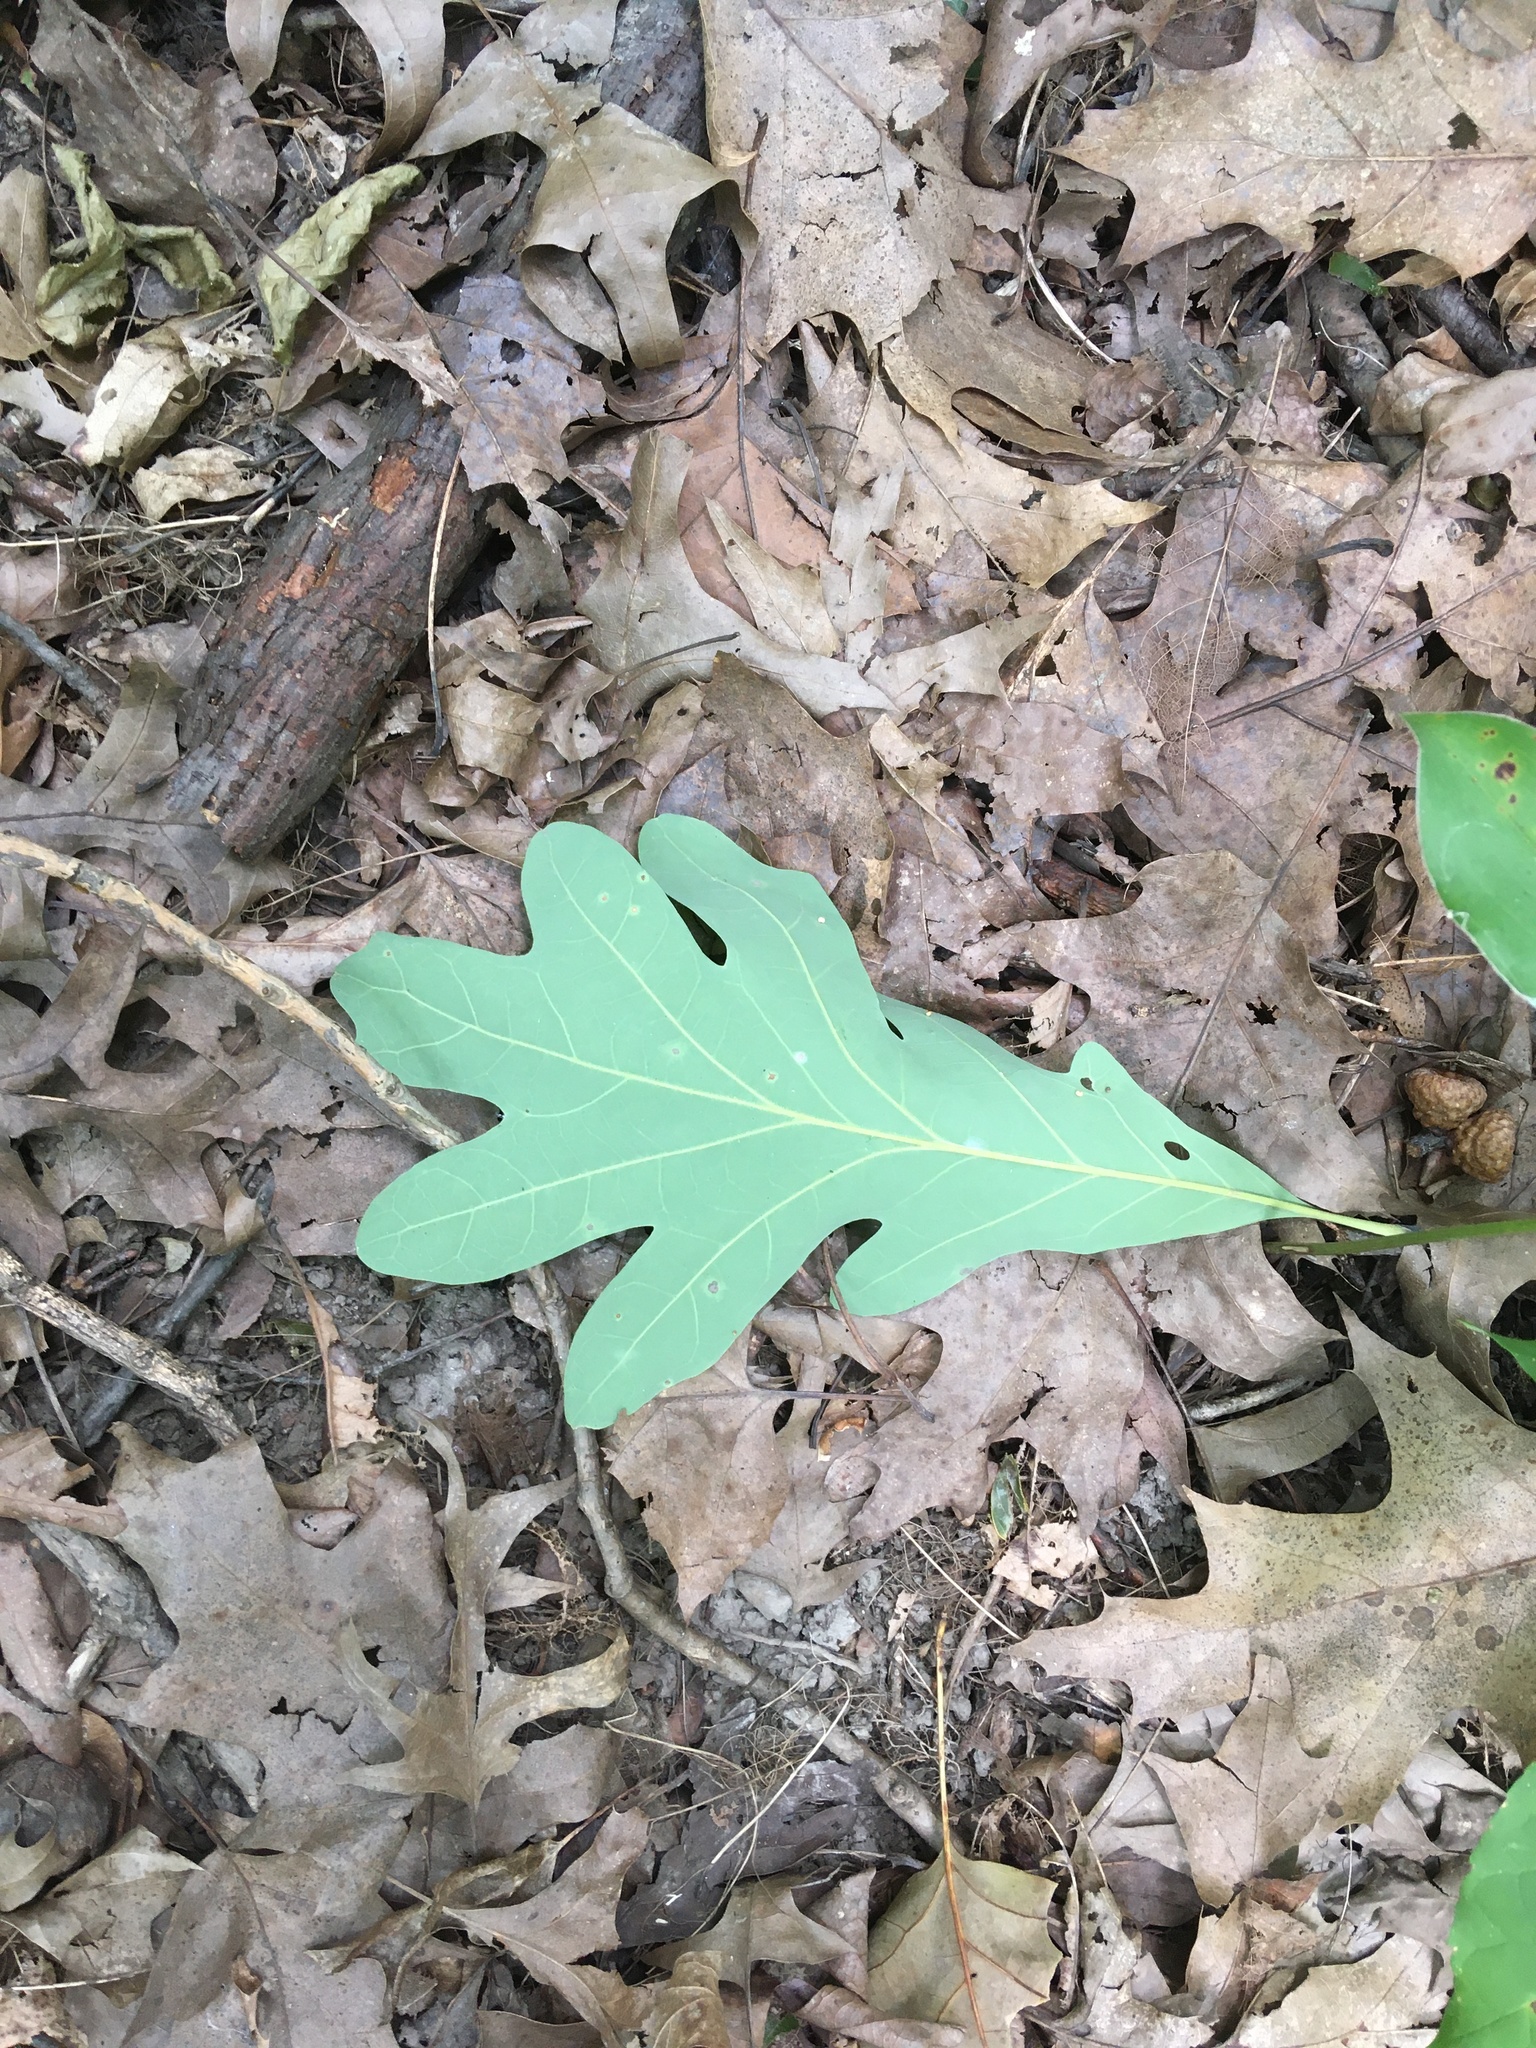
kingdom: Plantae
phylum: Tracheophyta
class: Magnoliopsida
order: Fagales
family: Fagaceae
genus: Quercus
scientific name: Quercus alba
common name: White oak
